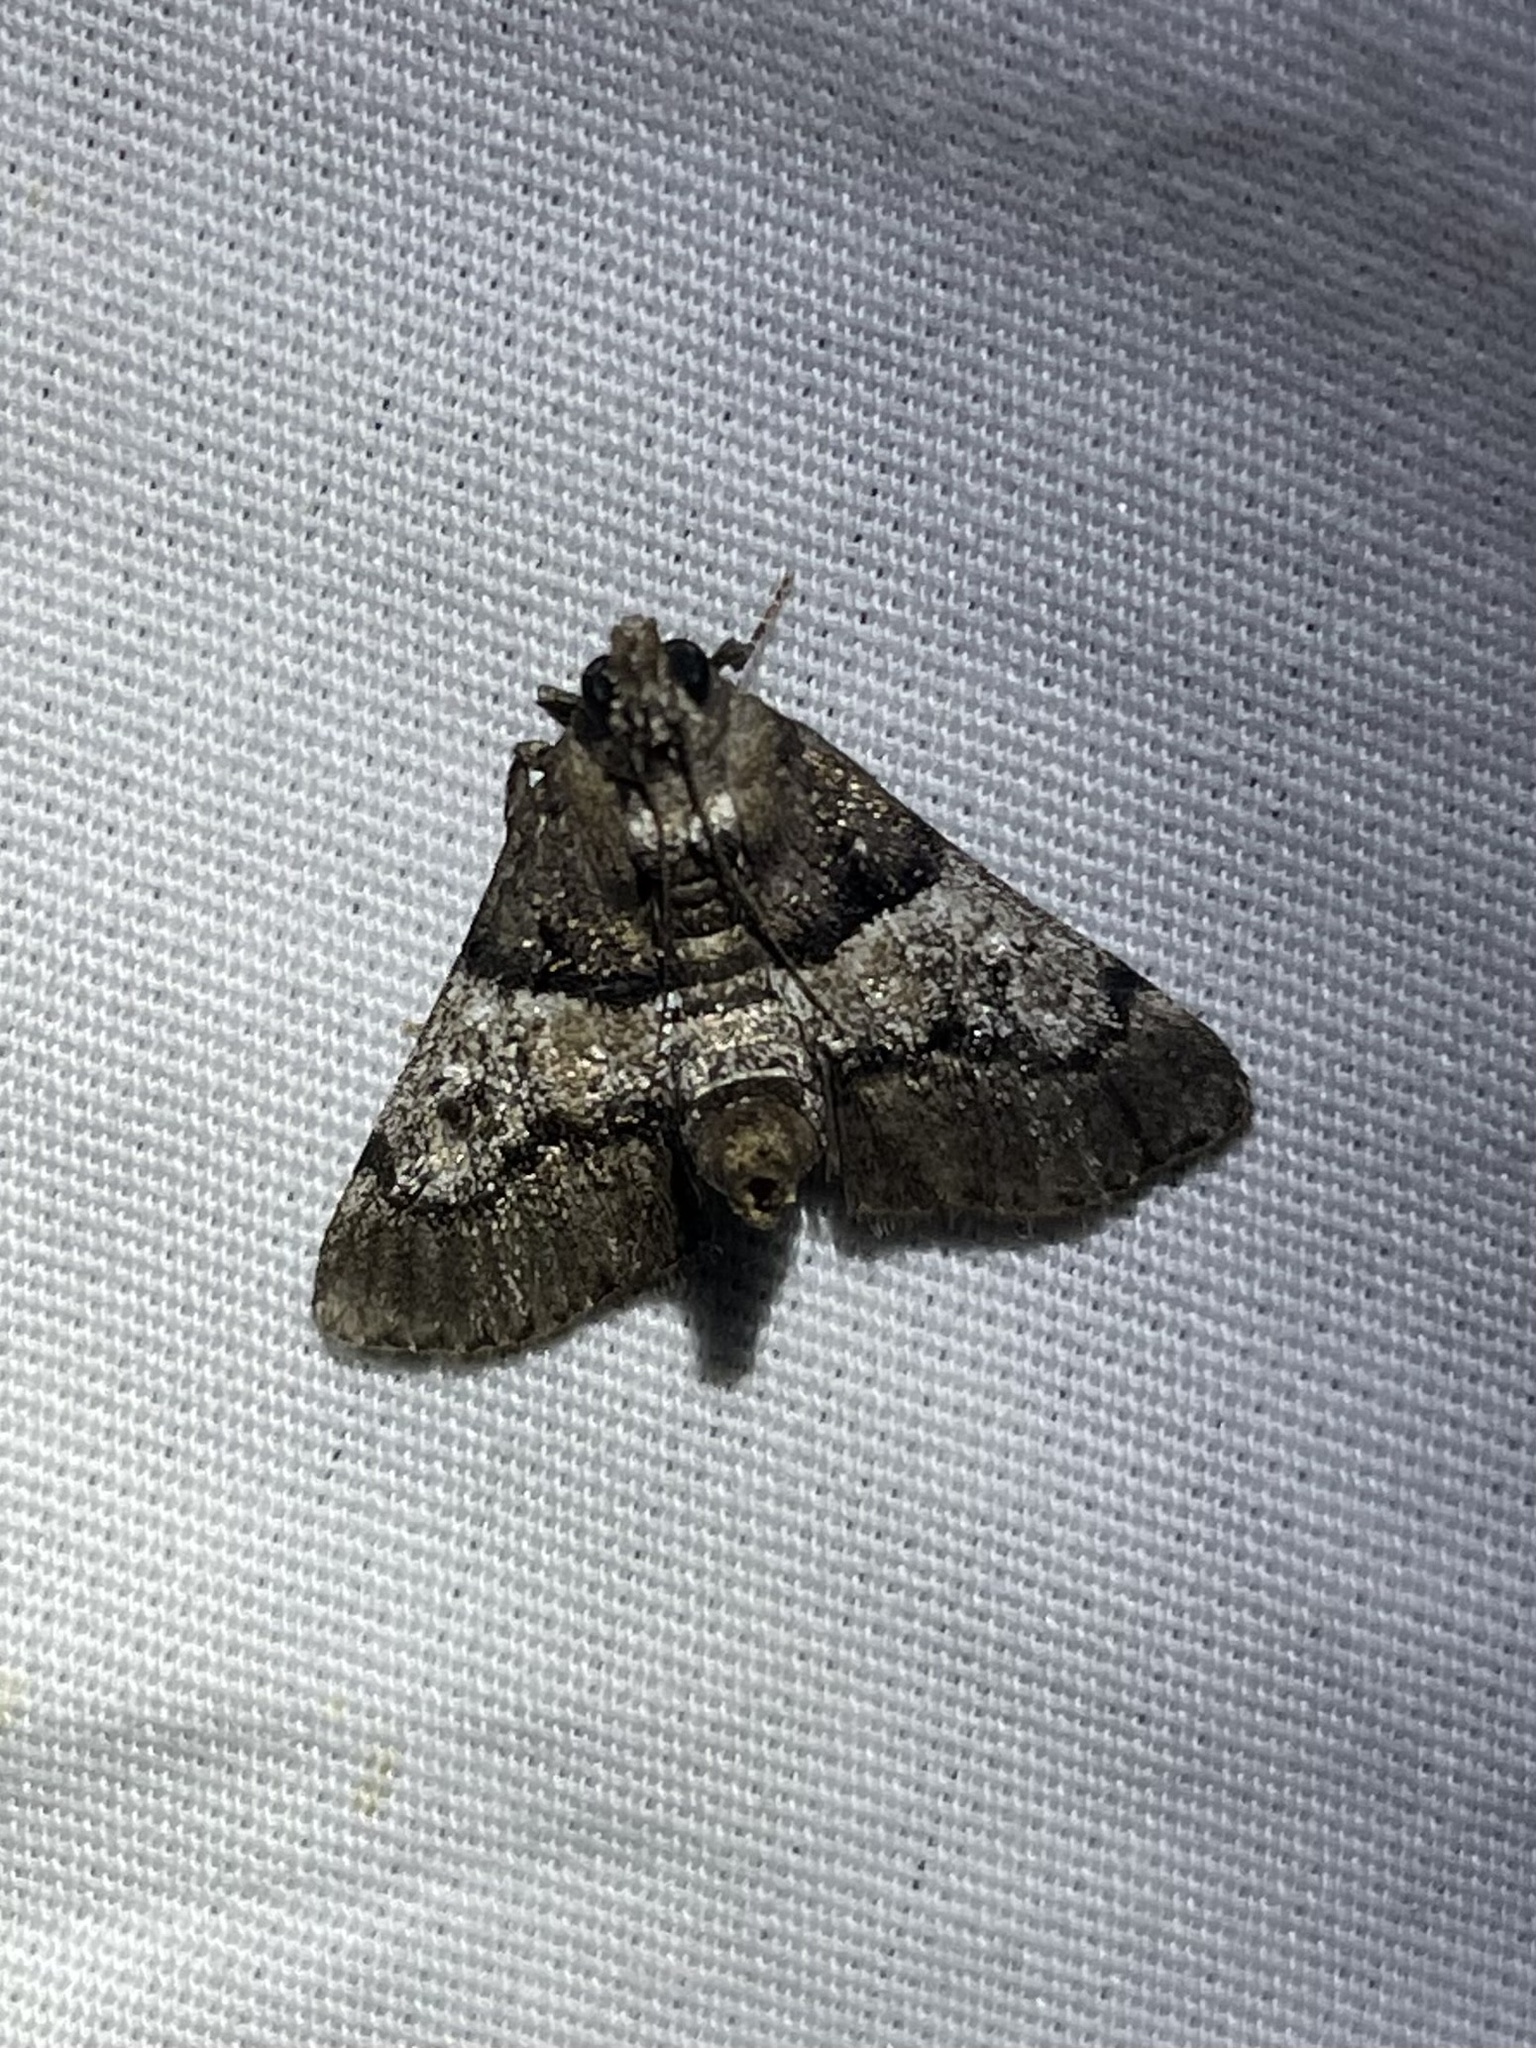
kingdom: Animalia
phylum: Arthropoda
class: Insecta
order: Lepidoptera
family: Pyralidae
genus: Macalla
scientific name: Macalla zelleri
